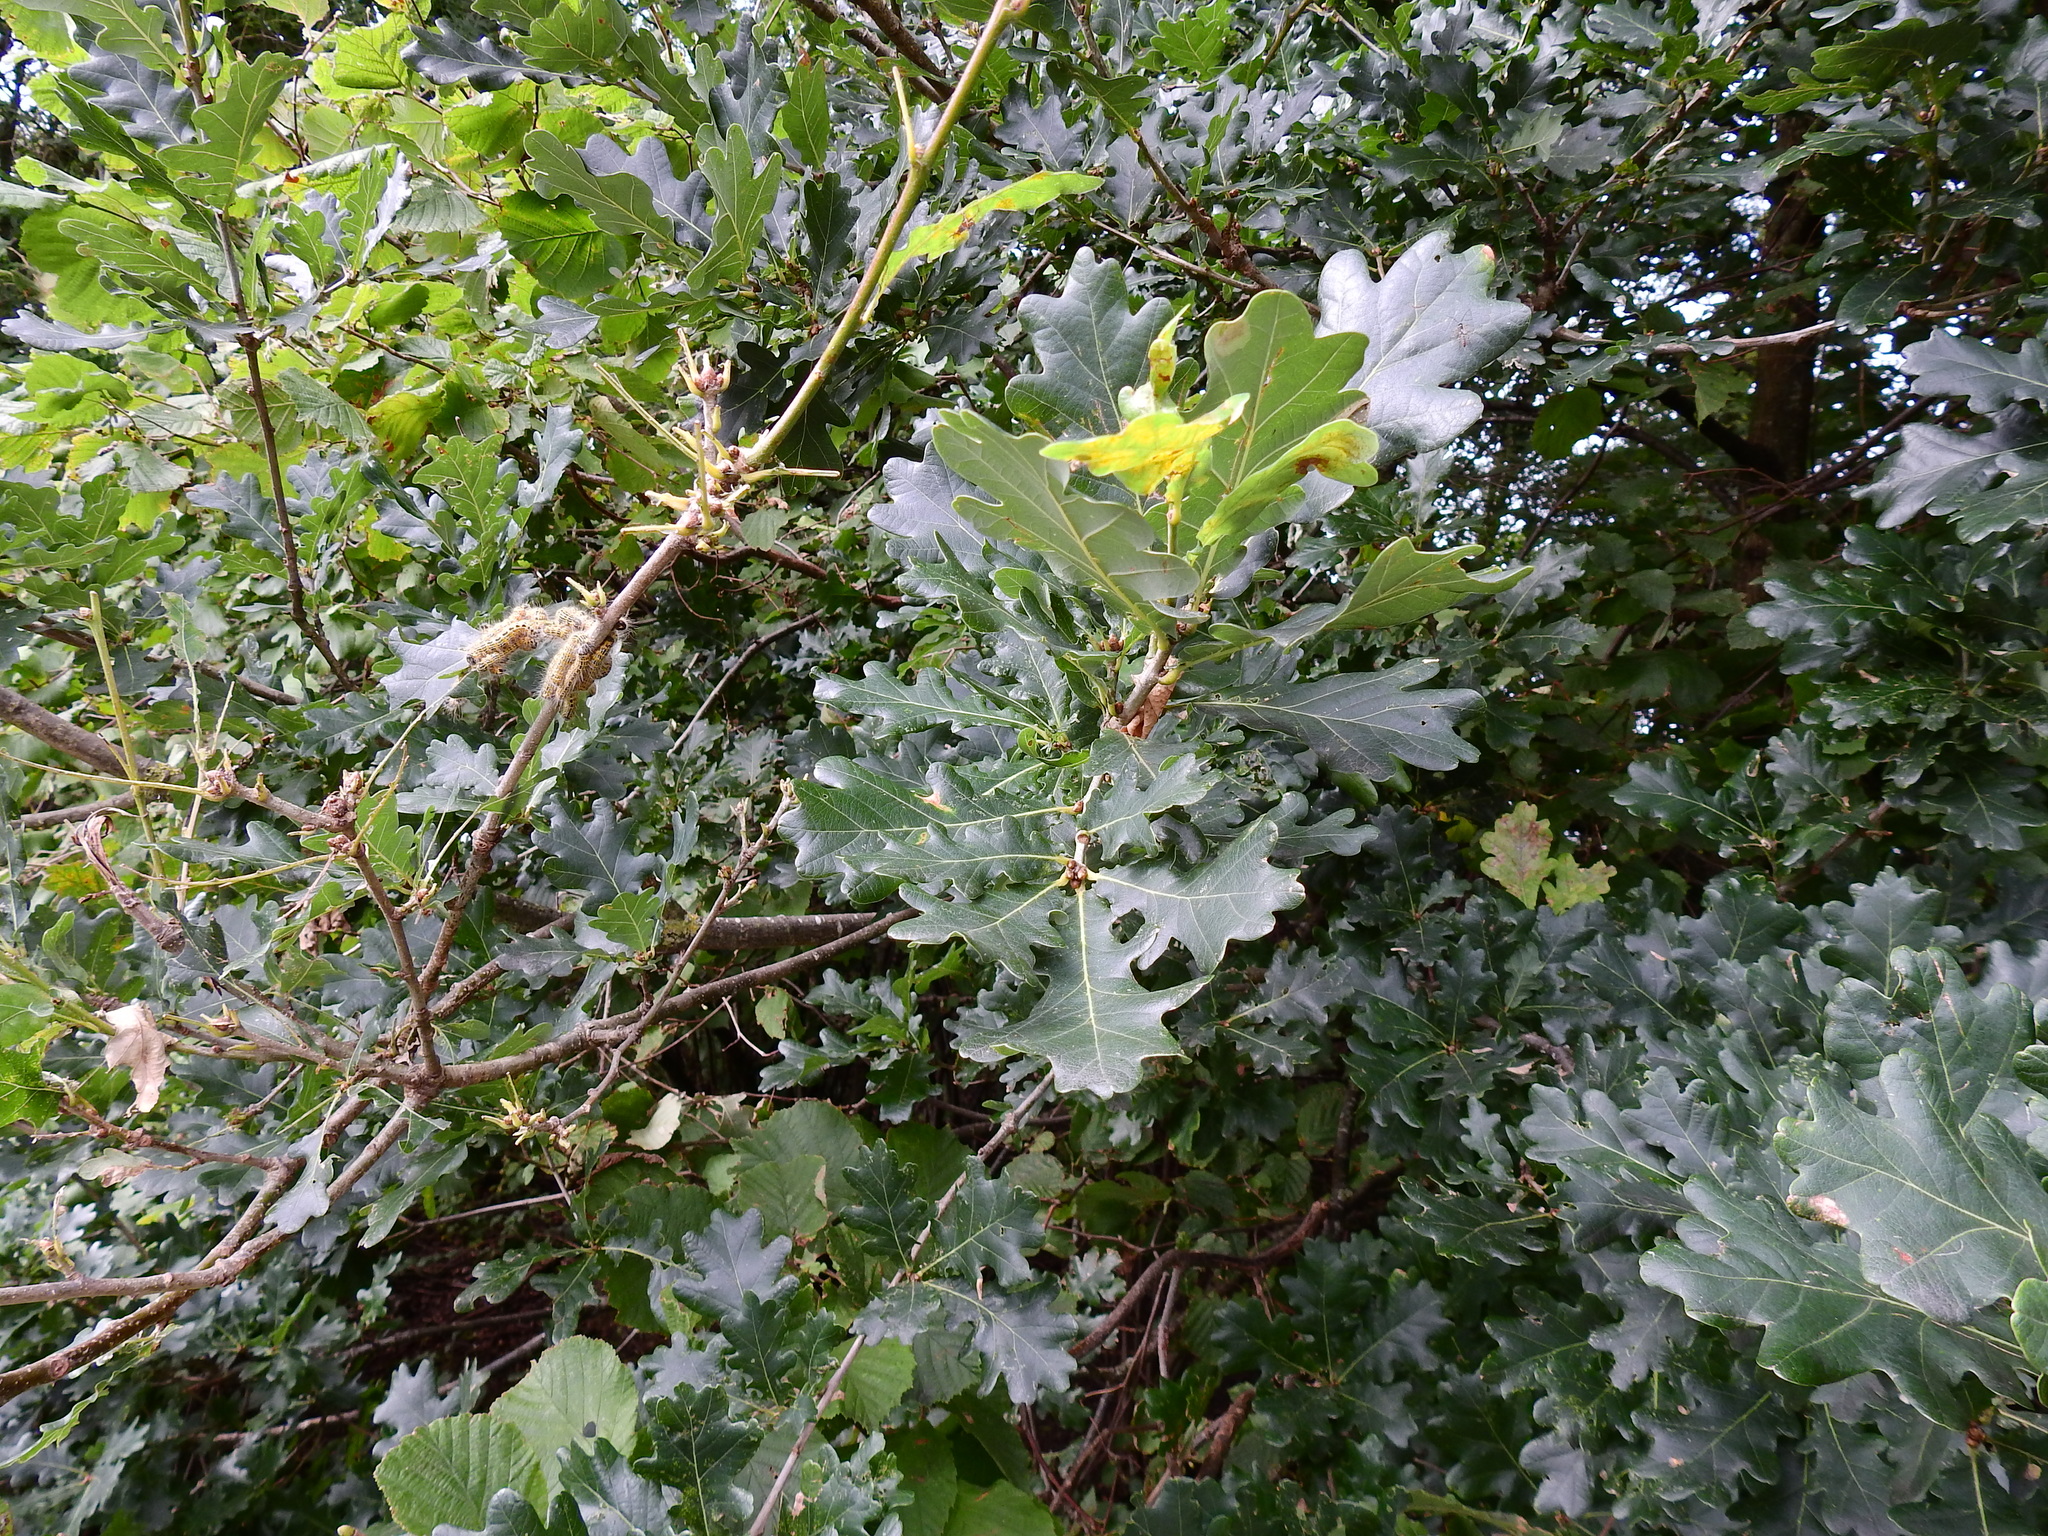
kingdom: Plantae
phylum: Tracheophyta
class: Magnoliopsida
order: Fagales
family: Fagaceae
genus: Quercus
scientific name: Quercus robur
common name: Pedunculate oak
